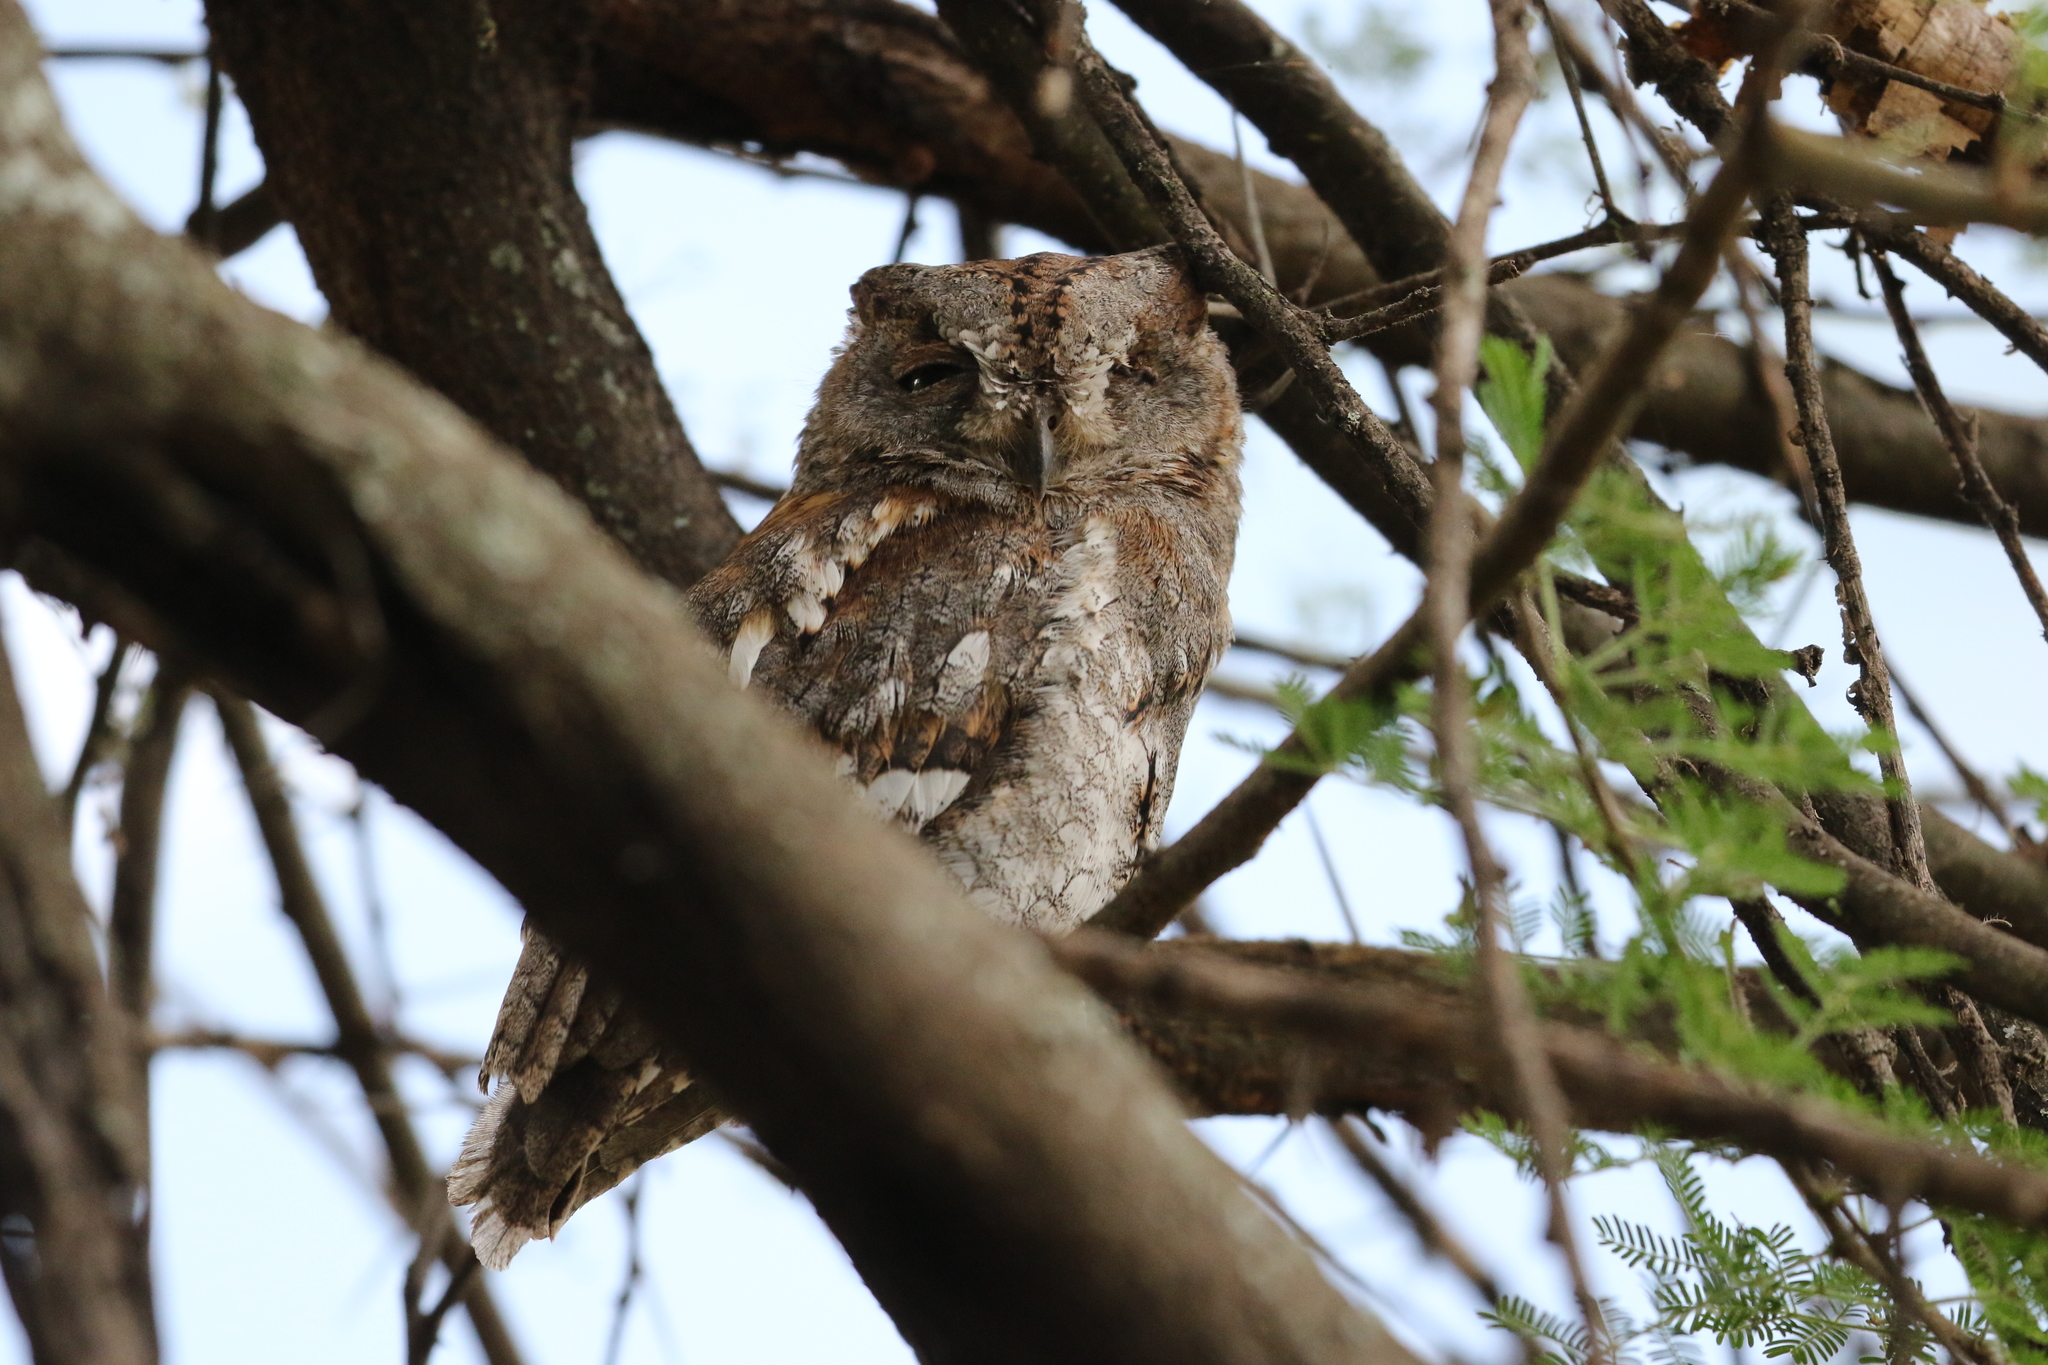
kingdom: Animalia
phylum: Chordata
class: Aves
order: Strigiformes
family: Strigidae
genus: Otus
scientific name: Otus senegalensis
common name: African scops owl
